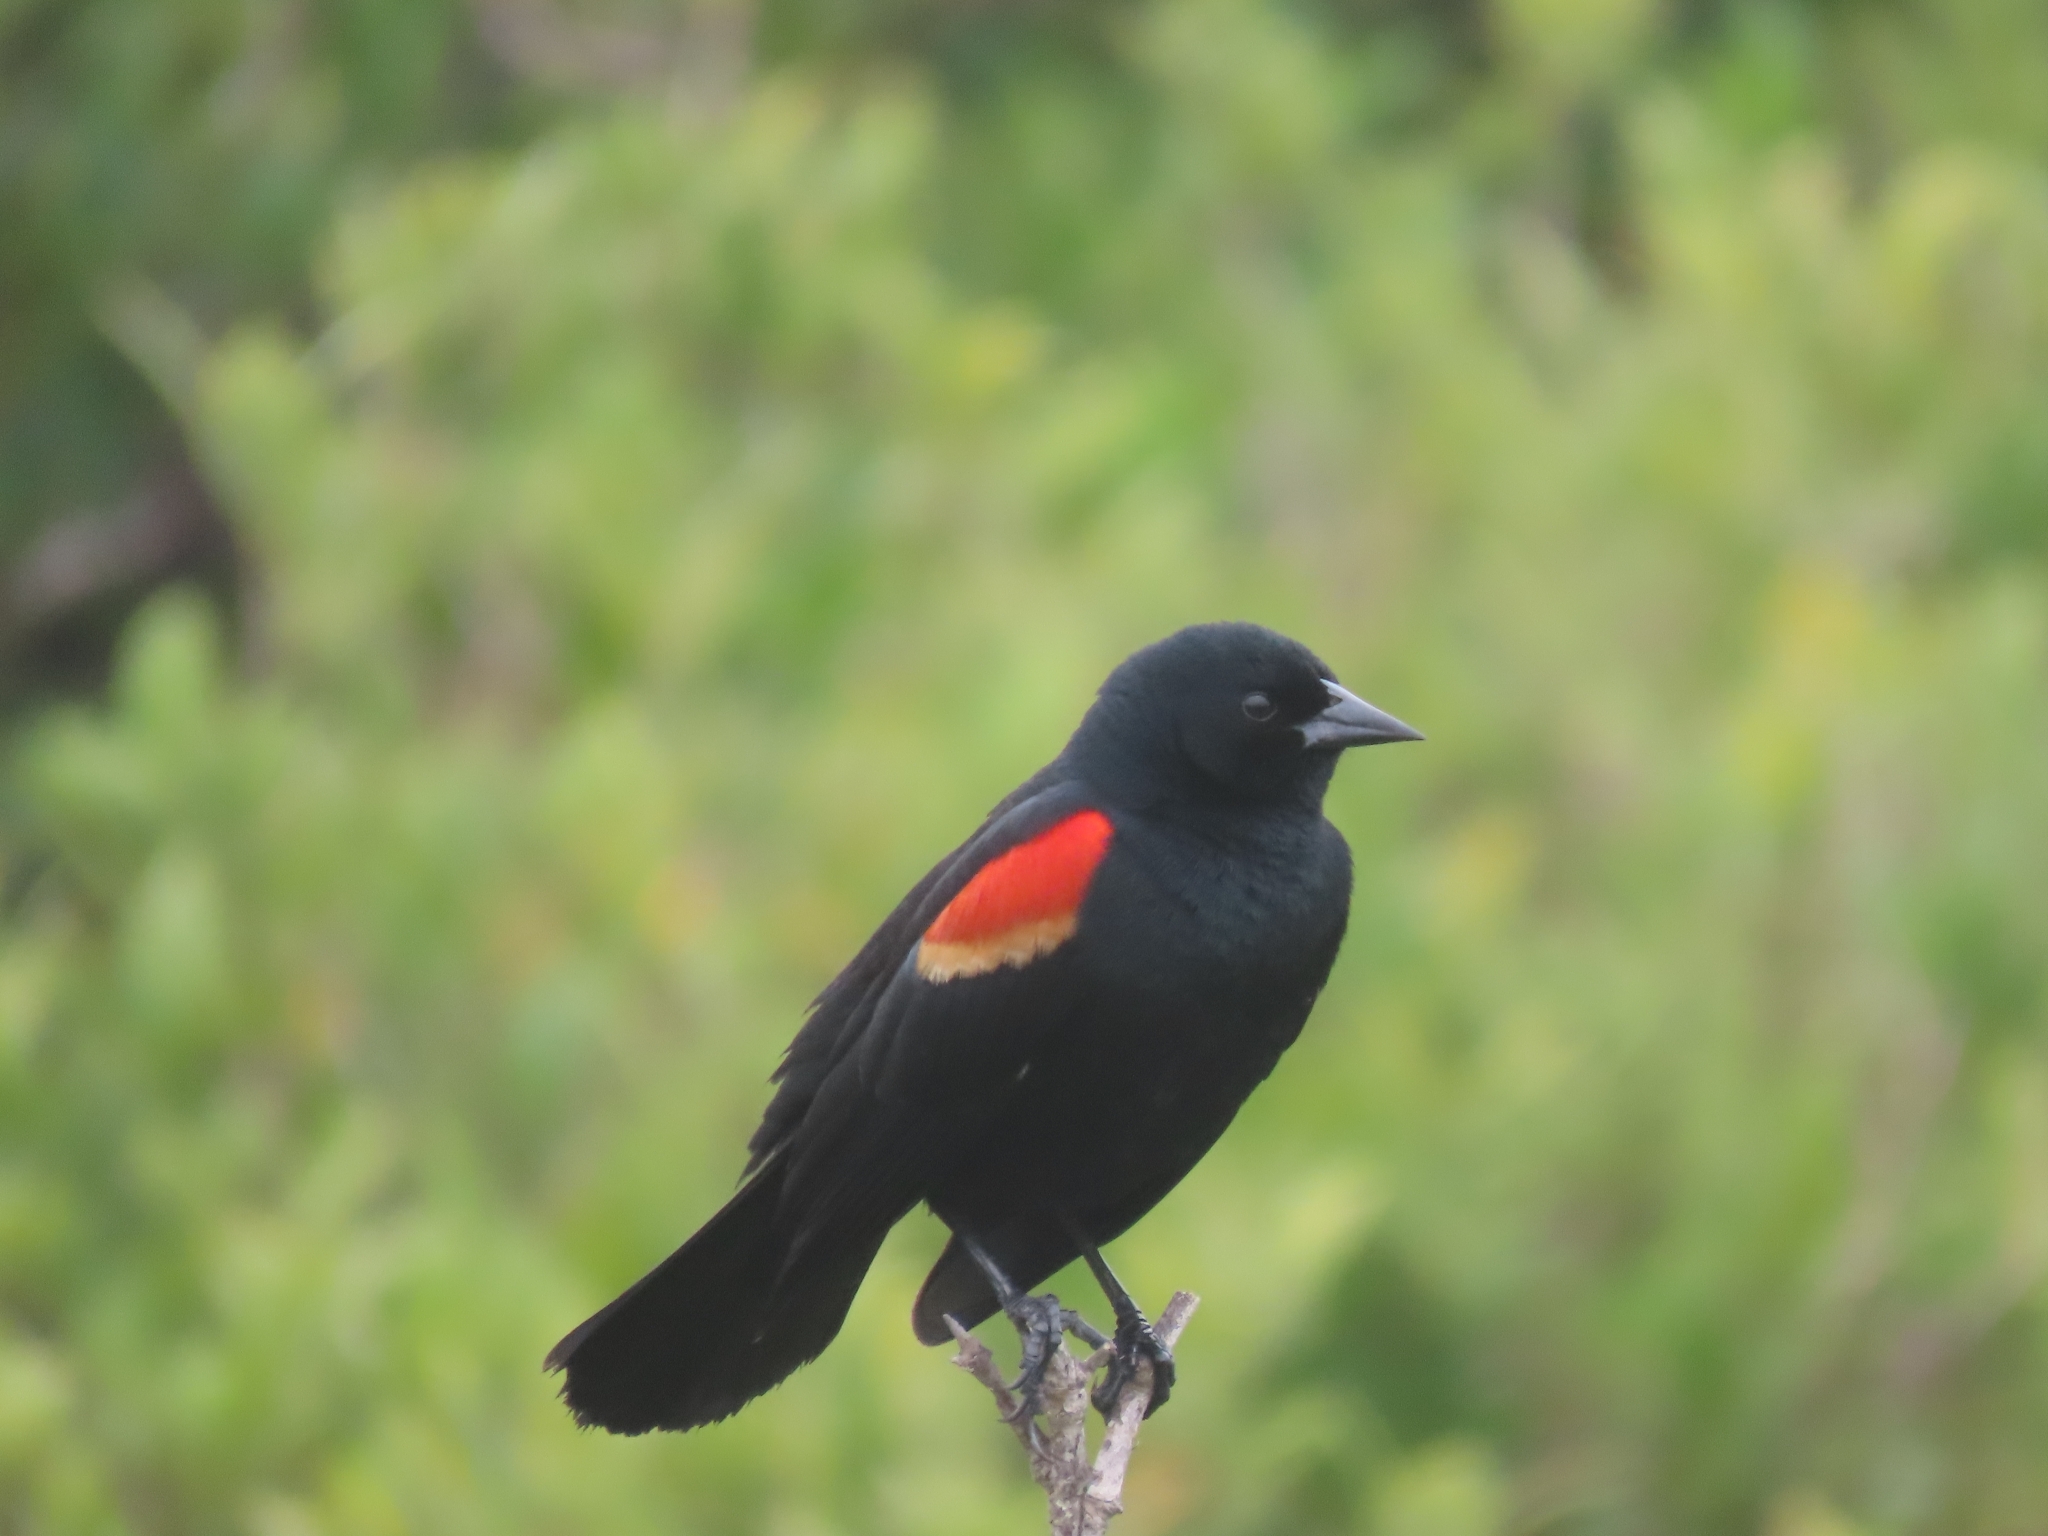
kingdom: Animalia
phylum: Chordata
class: Aves
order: Passeriformes
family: Icteridae
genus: Agelaius
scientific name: Agelaius phoeniceus
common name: Red-winged blackbird
